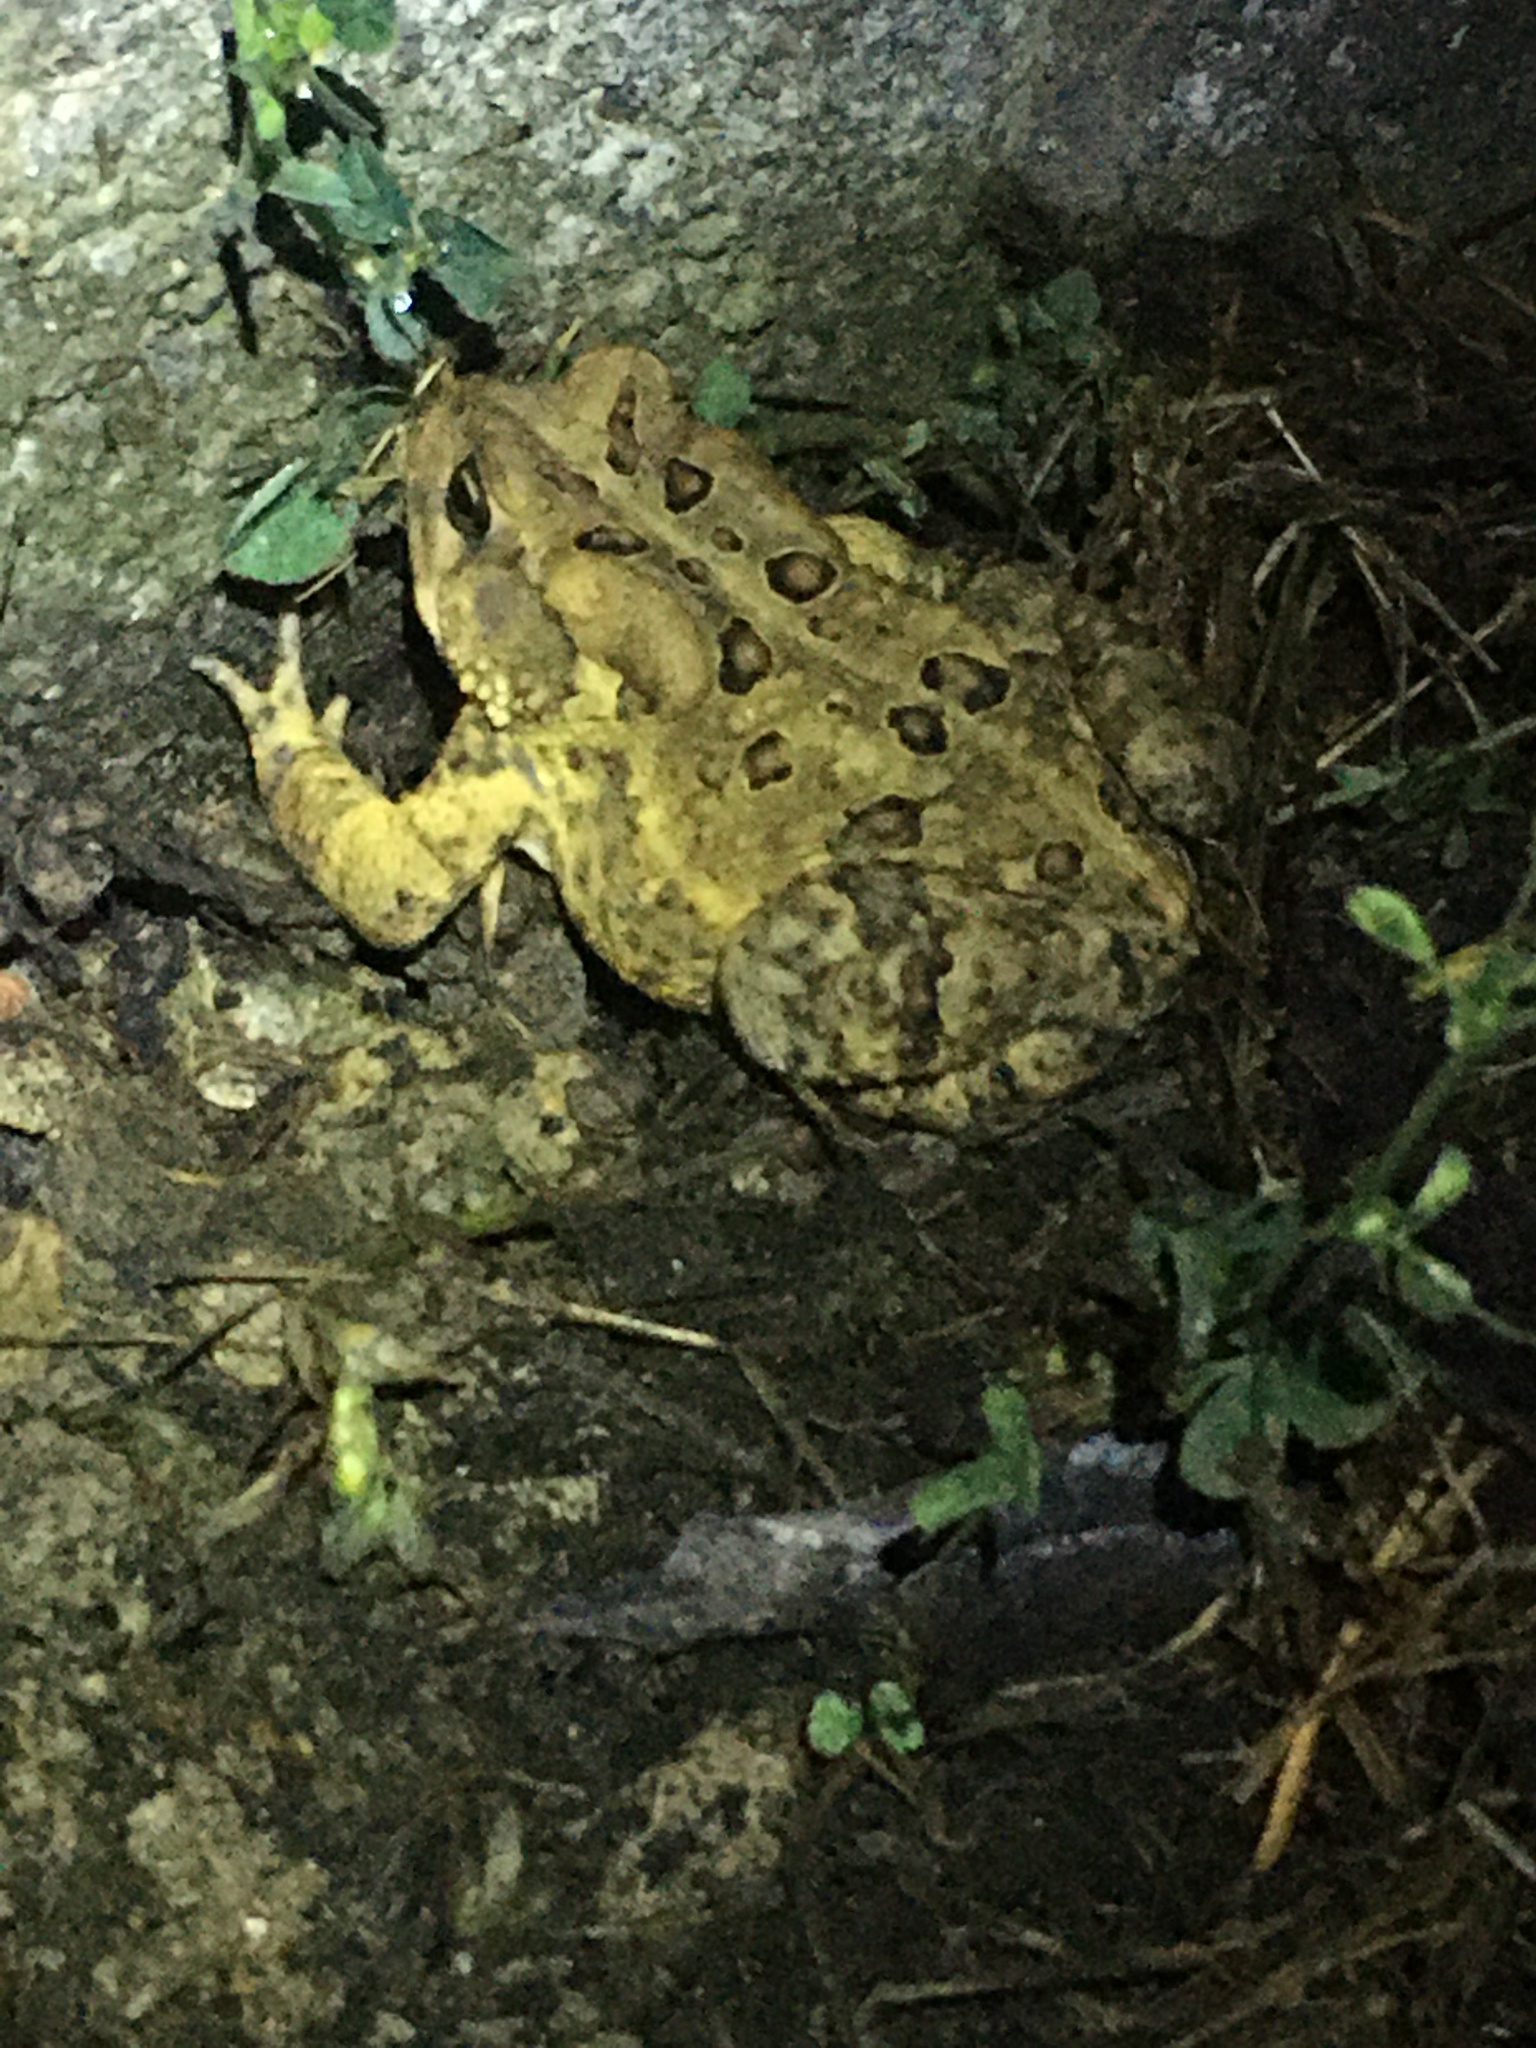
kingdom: Animalia
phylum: Chordata
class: Amphibia
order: Anura
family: Bufonidae
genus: Anaxyrus
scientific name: Anaxyrus americanus
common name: American toad
